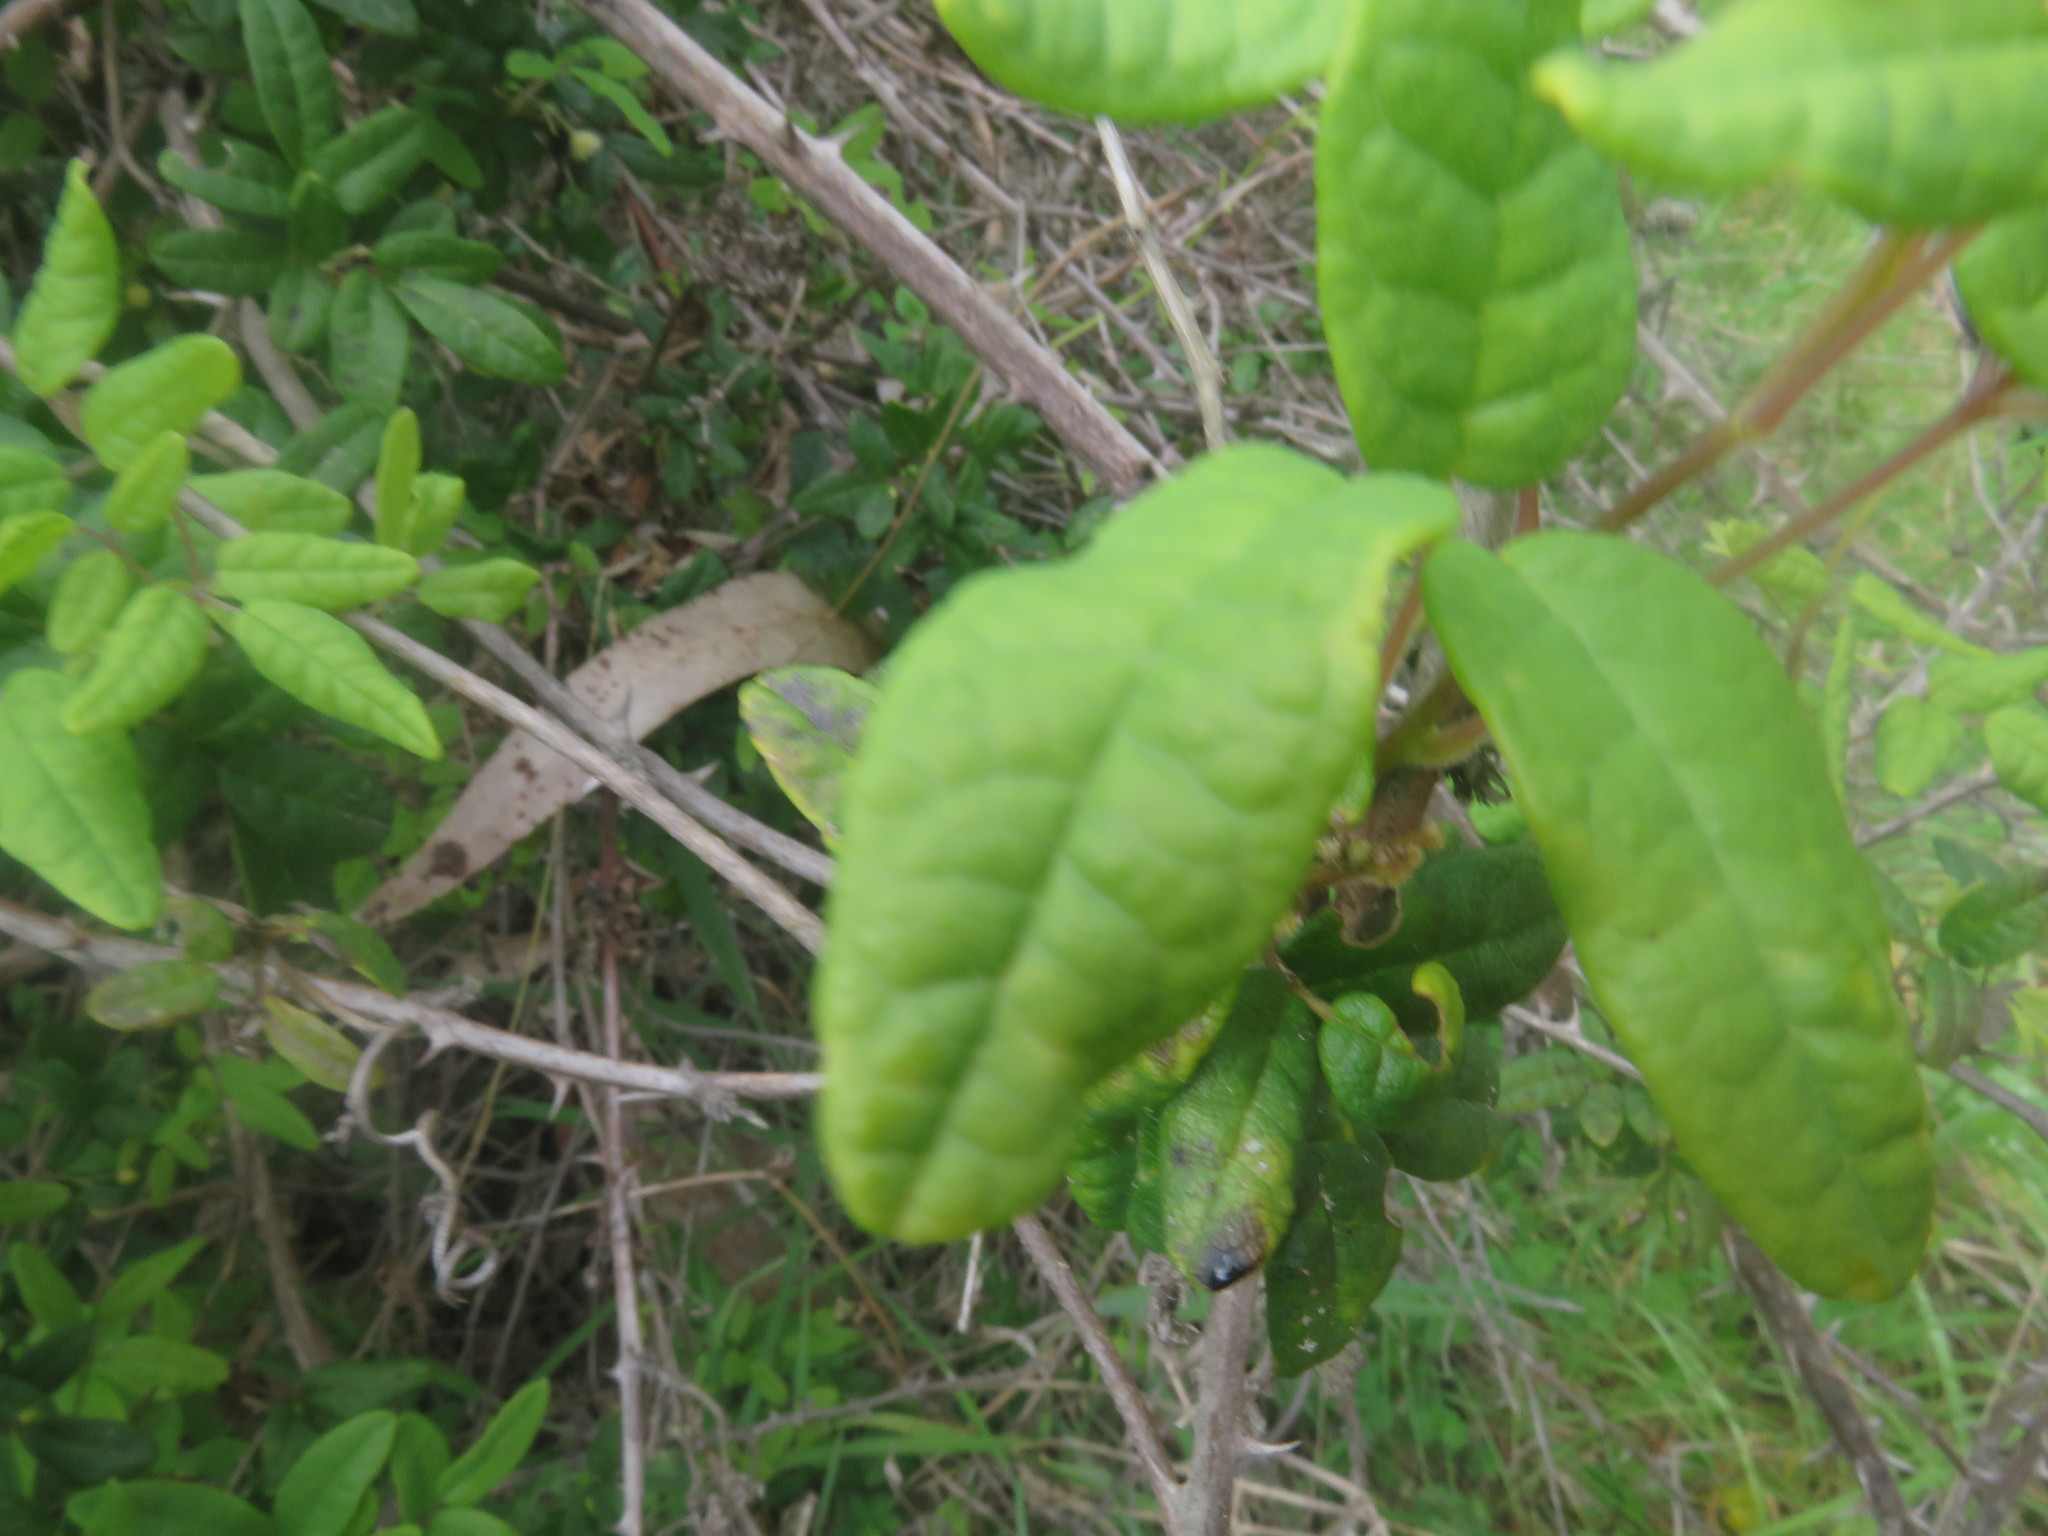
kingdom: Plantae
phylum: Tracheophyta
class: Magnoliopsida
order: Ranunculales
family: Lardizabalaceae
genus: Boquila
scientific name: Boquila trifoliolata
